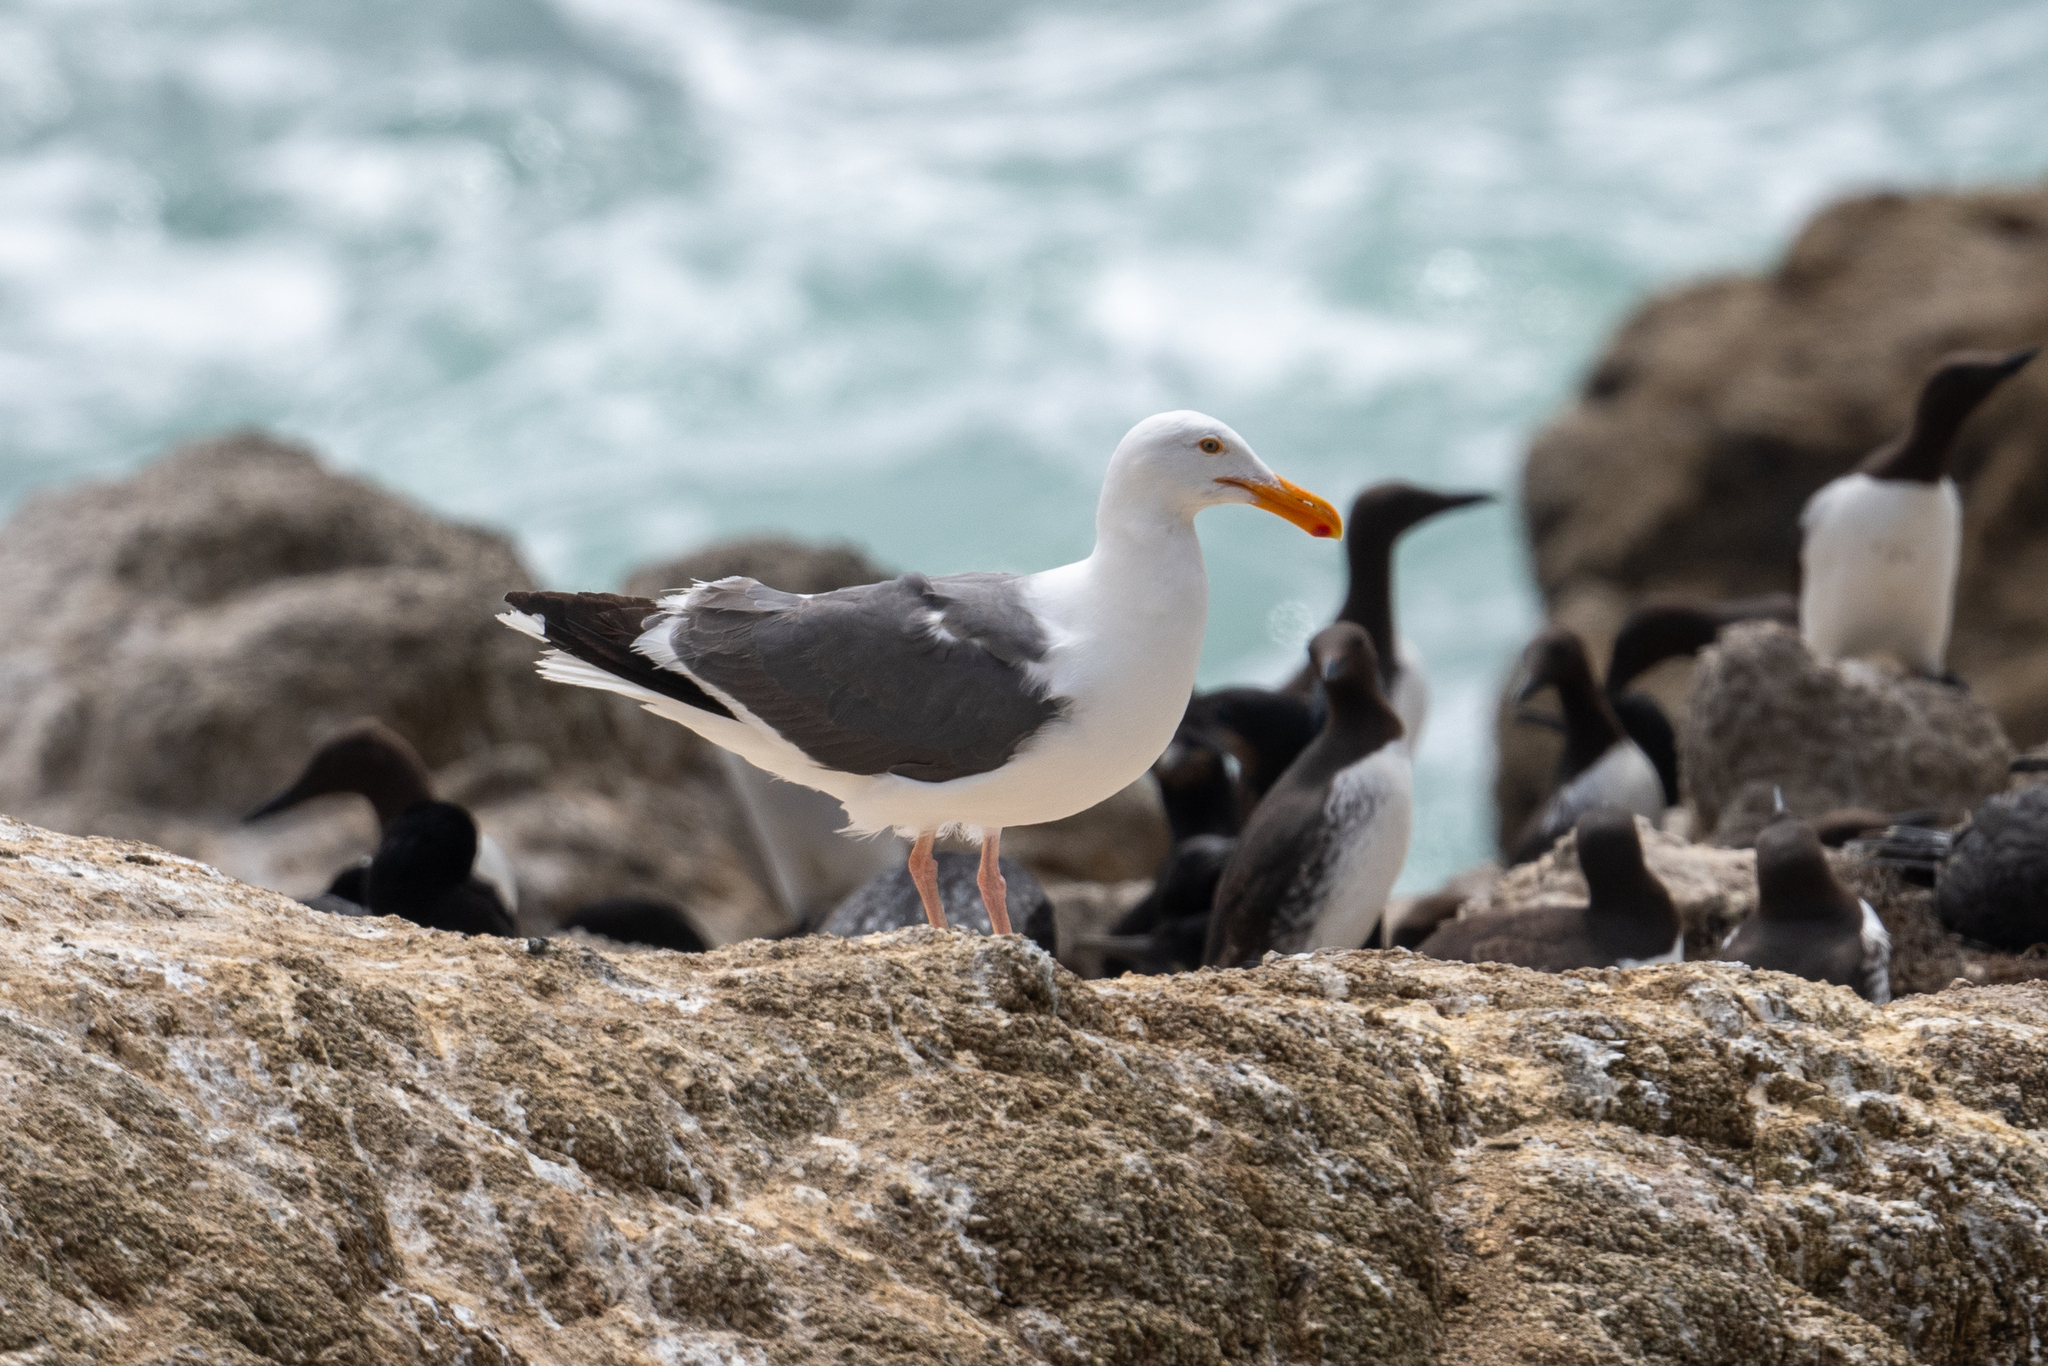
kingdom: Animalia
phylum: Chordata
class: Aves
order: Charadriiformes
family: Laridae
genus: Larus
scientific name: Larus occidentalis
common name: Western gull
